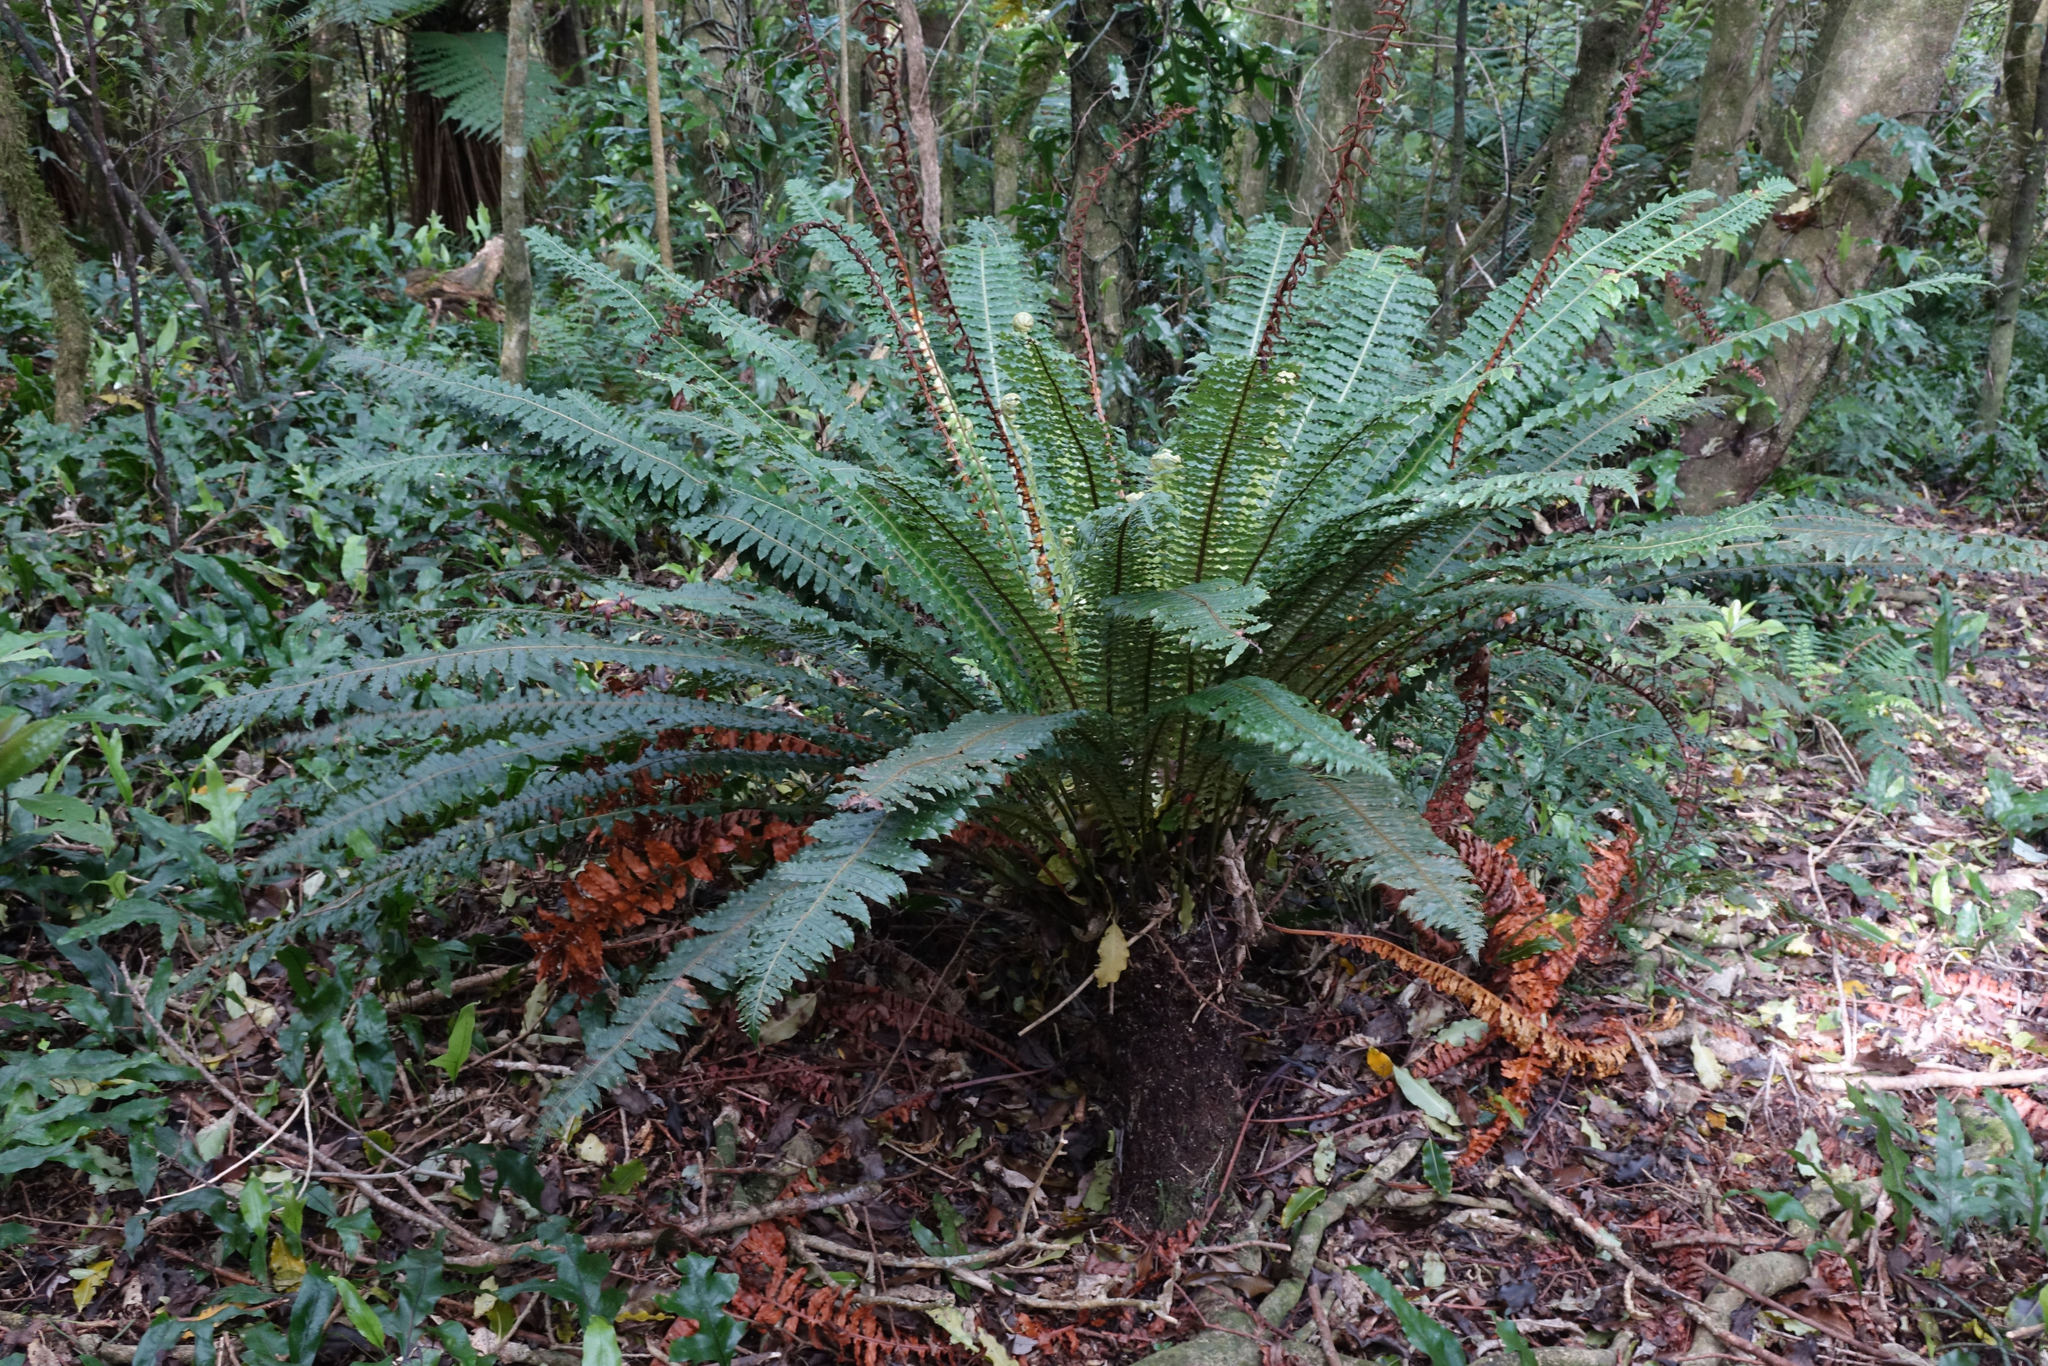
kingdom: Plantae
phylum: Tracheophyta
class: Polypodiopsida
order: Polypodiales
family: Blechnaceae
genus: Lomaria
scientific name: Lomaria discolor
